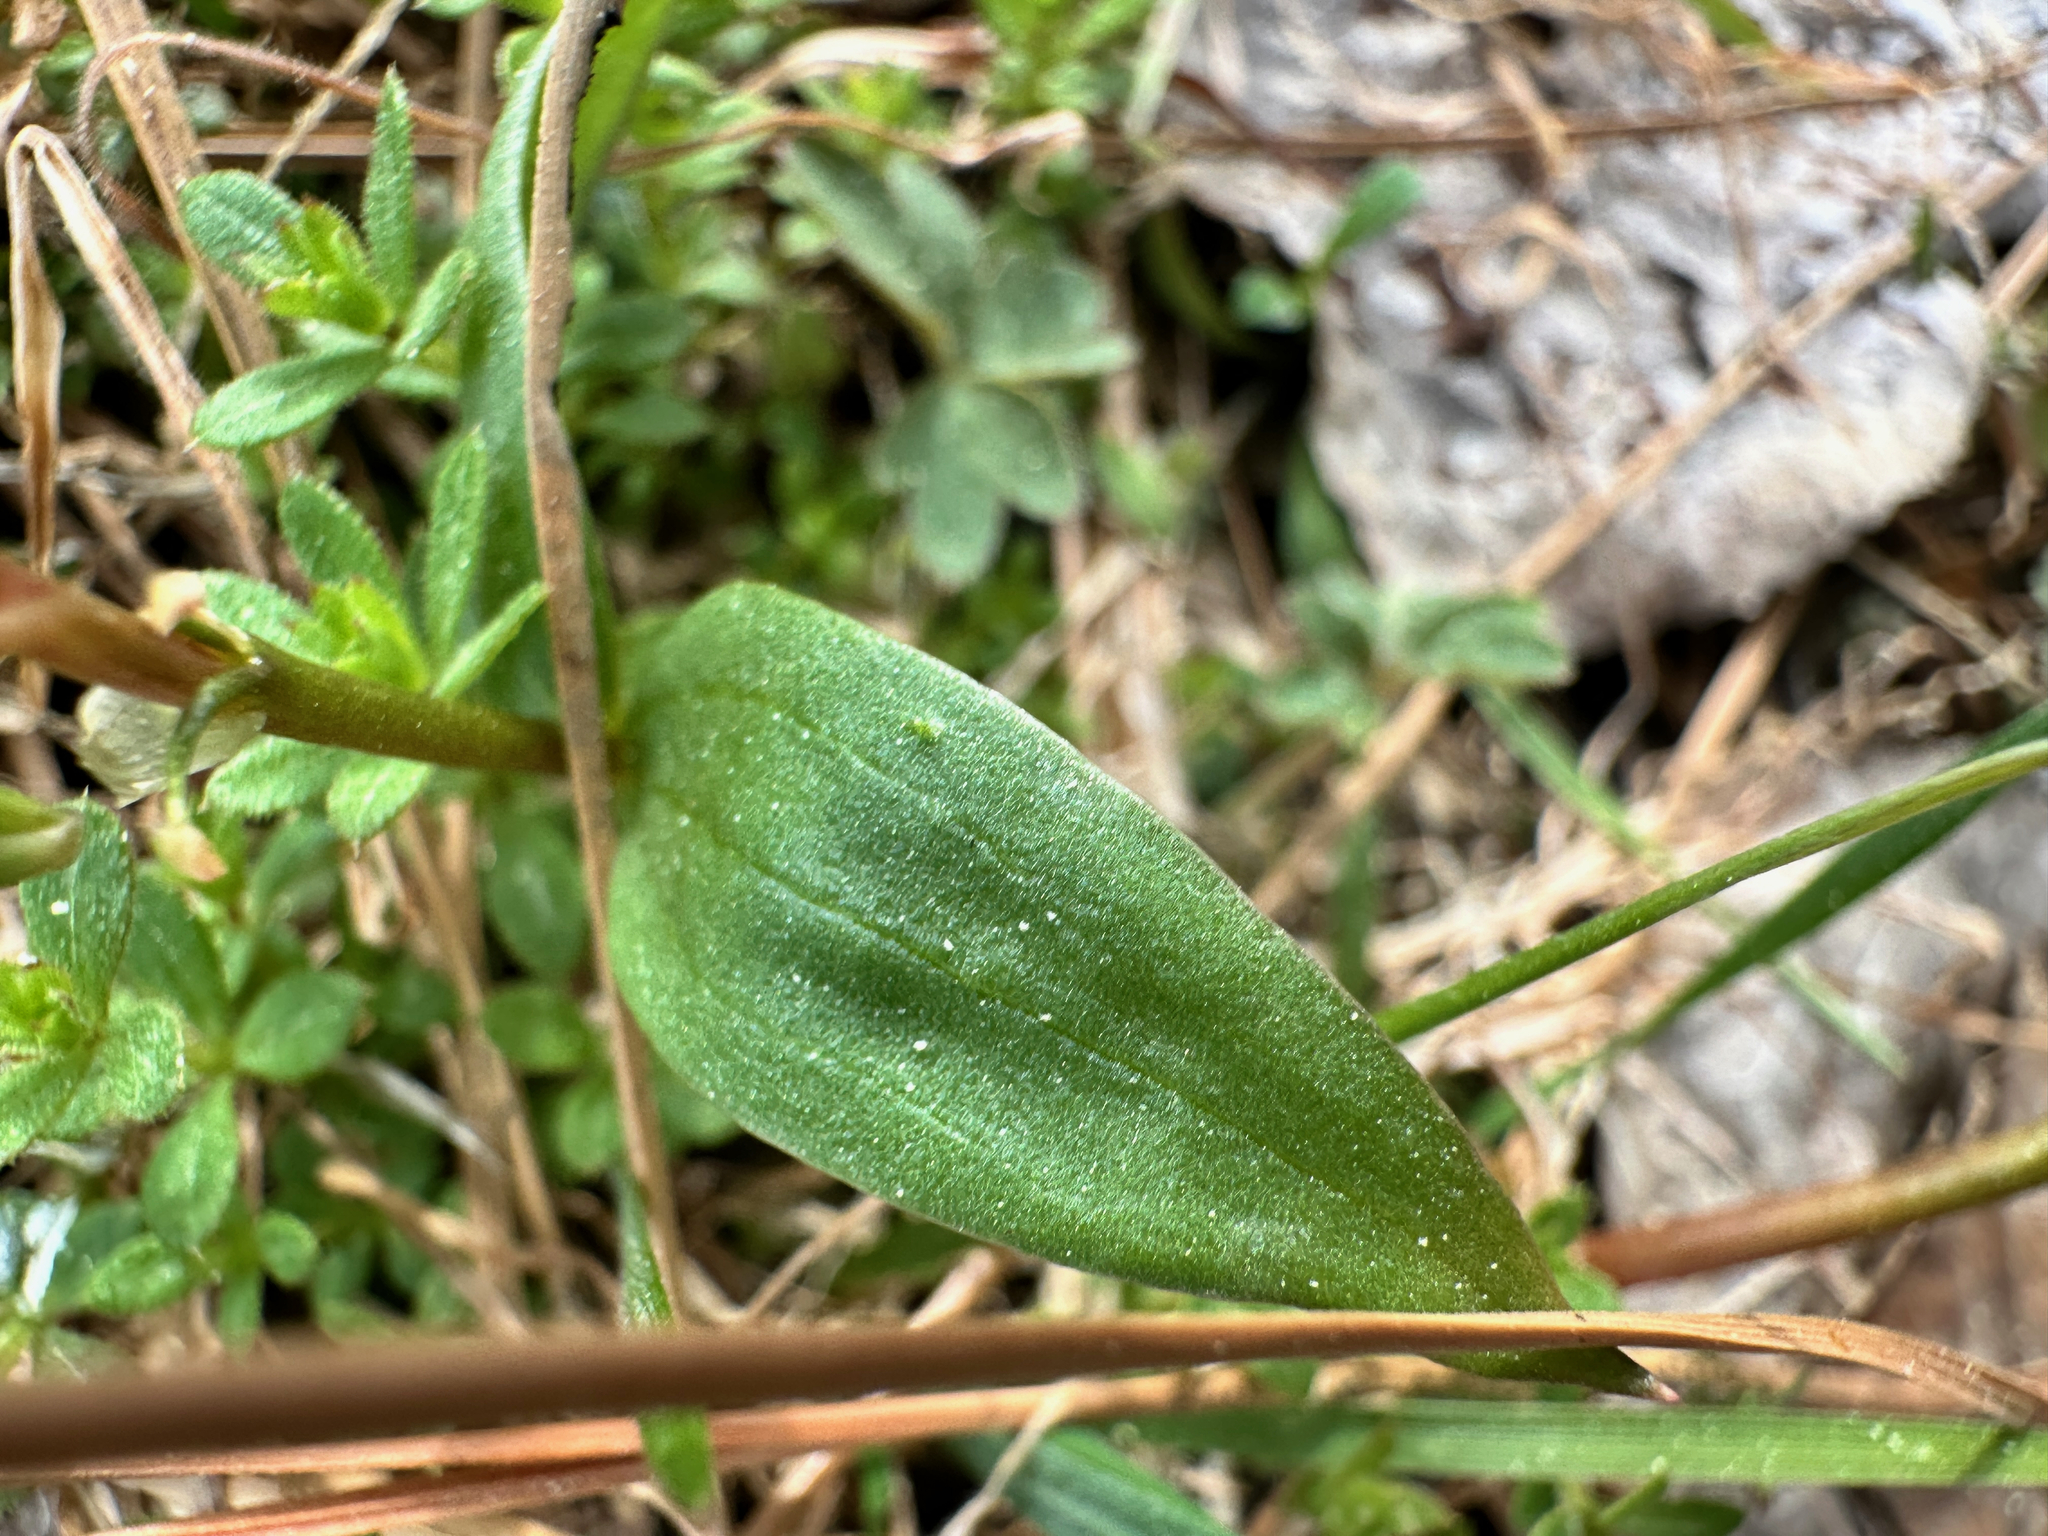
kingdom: Plantae
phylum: Tracheophyta
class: Magnoliopsida
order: Caryophyllales
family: Montiaceae
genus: Claytonia
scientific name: Claytonia lanceolata
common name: Western spring-beauty
